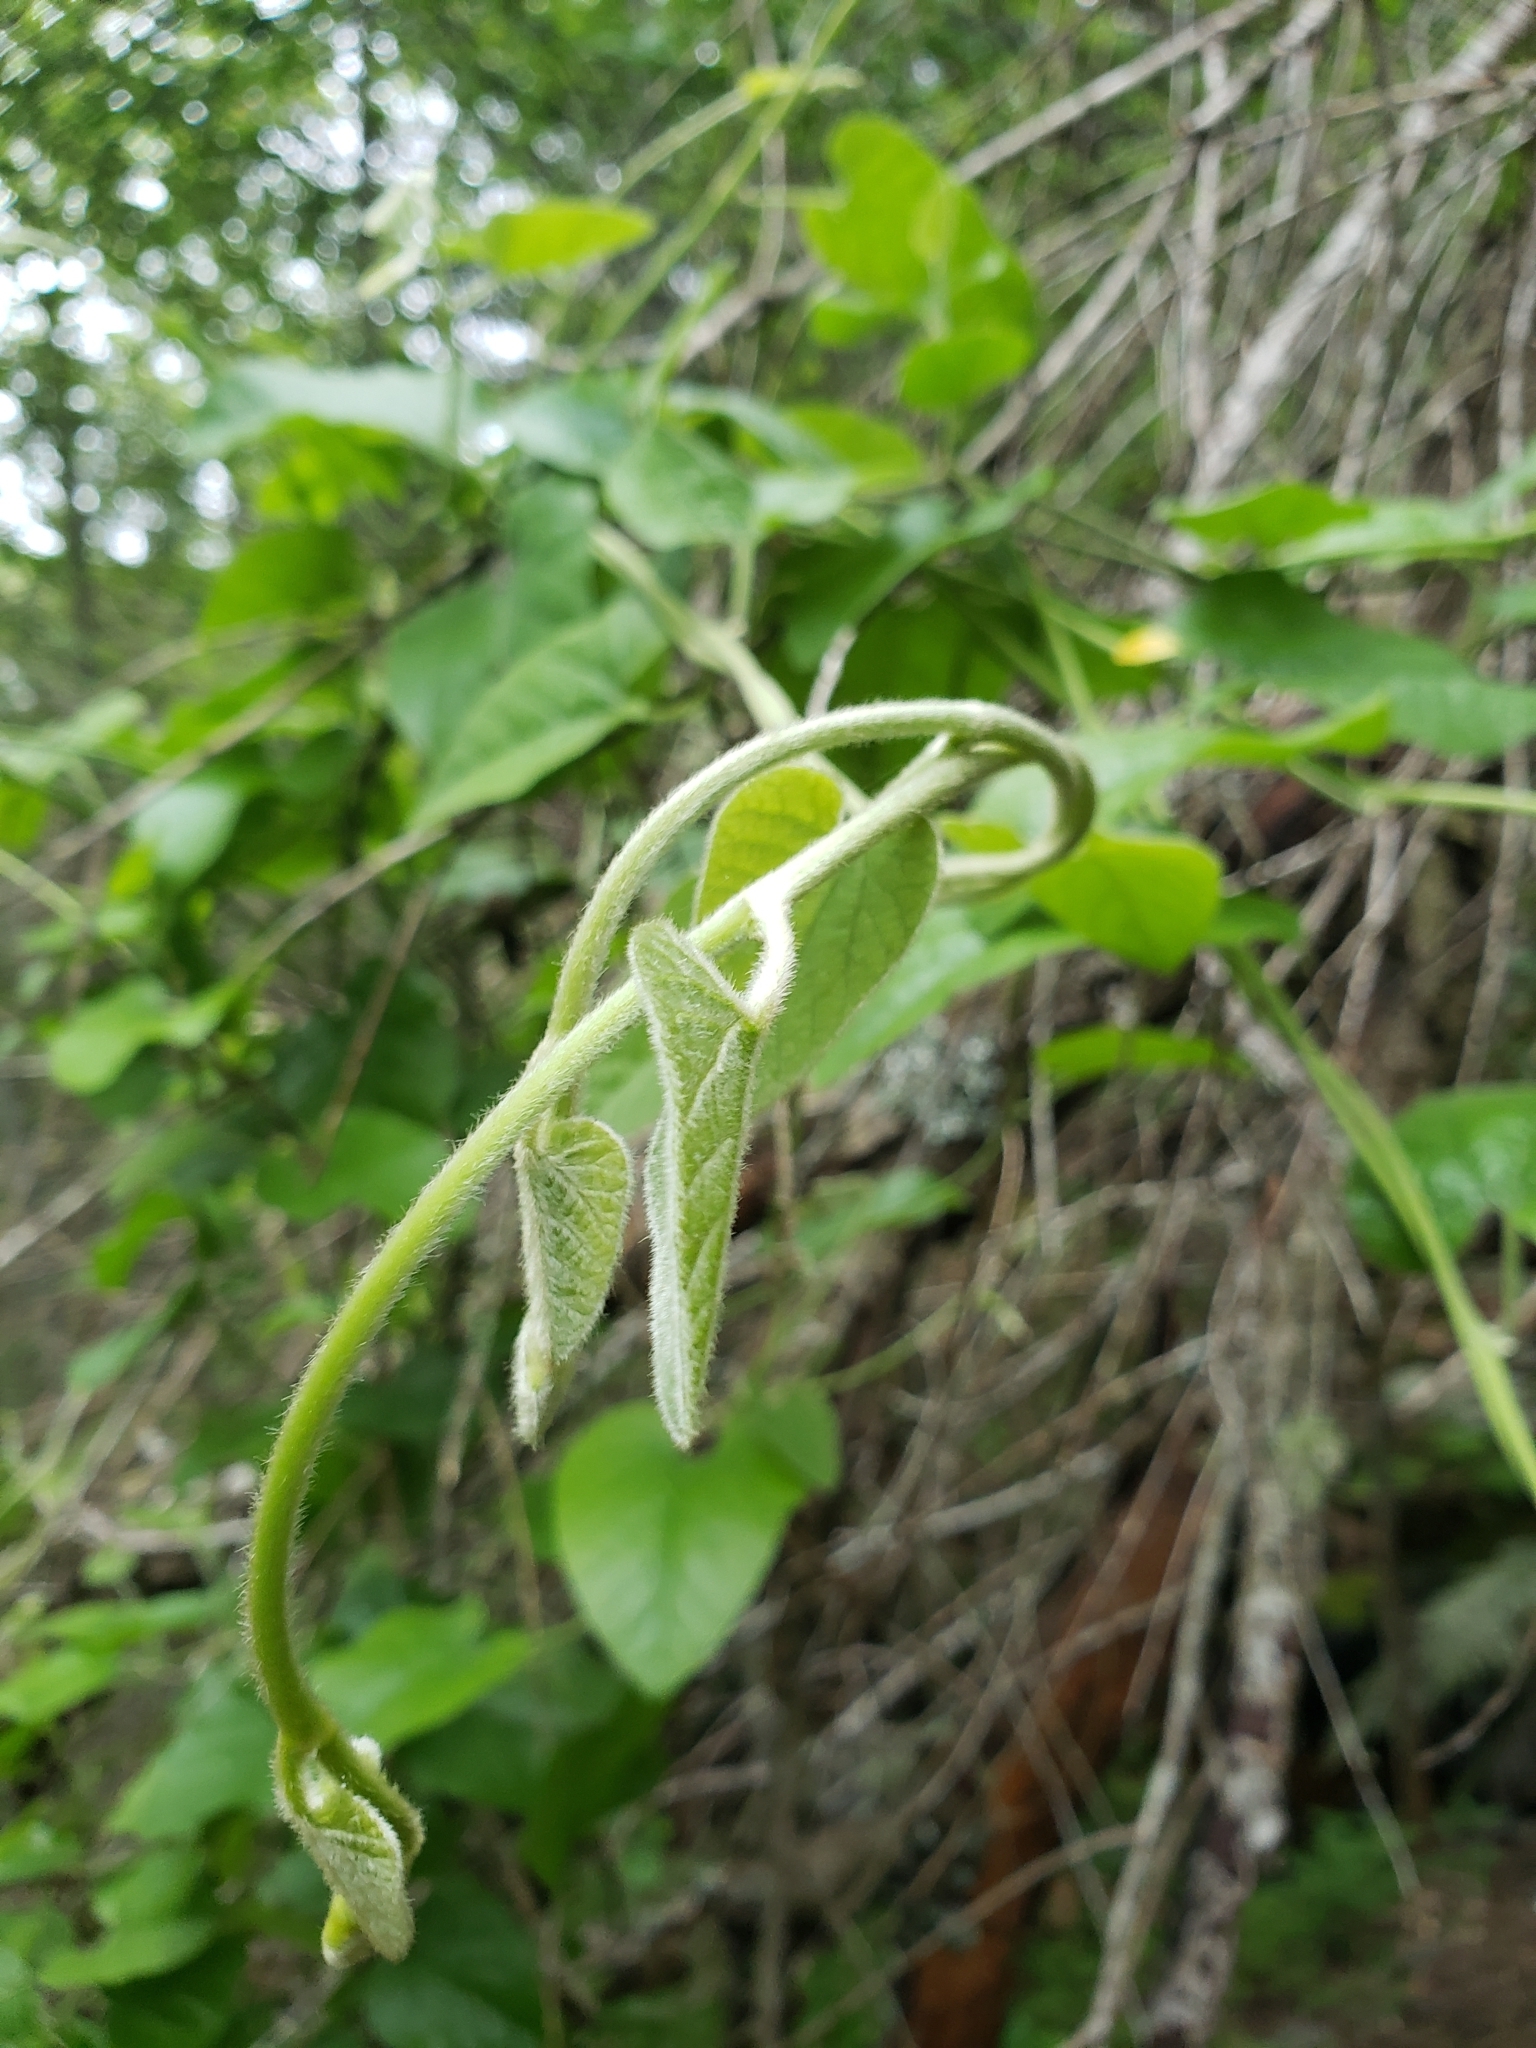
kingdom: Plantae
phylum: Tracheophyta
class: Magnoliopsida
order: Piperales
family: Aristolochiaceae
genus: Isotrema
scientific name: Isotrema californicum
